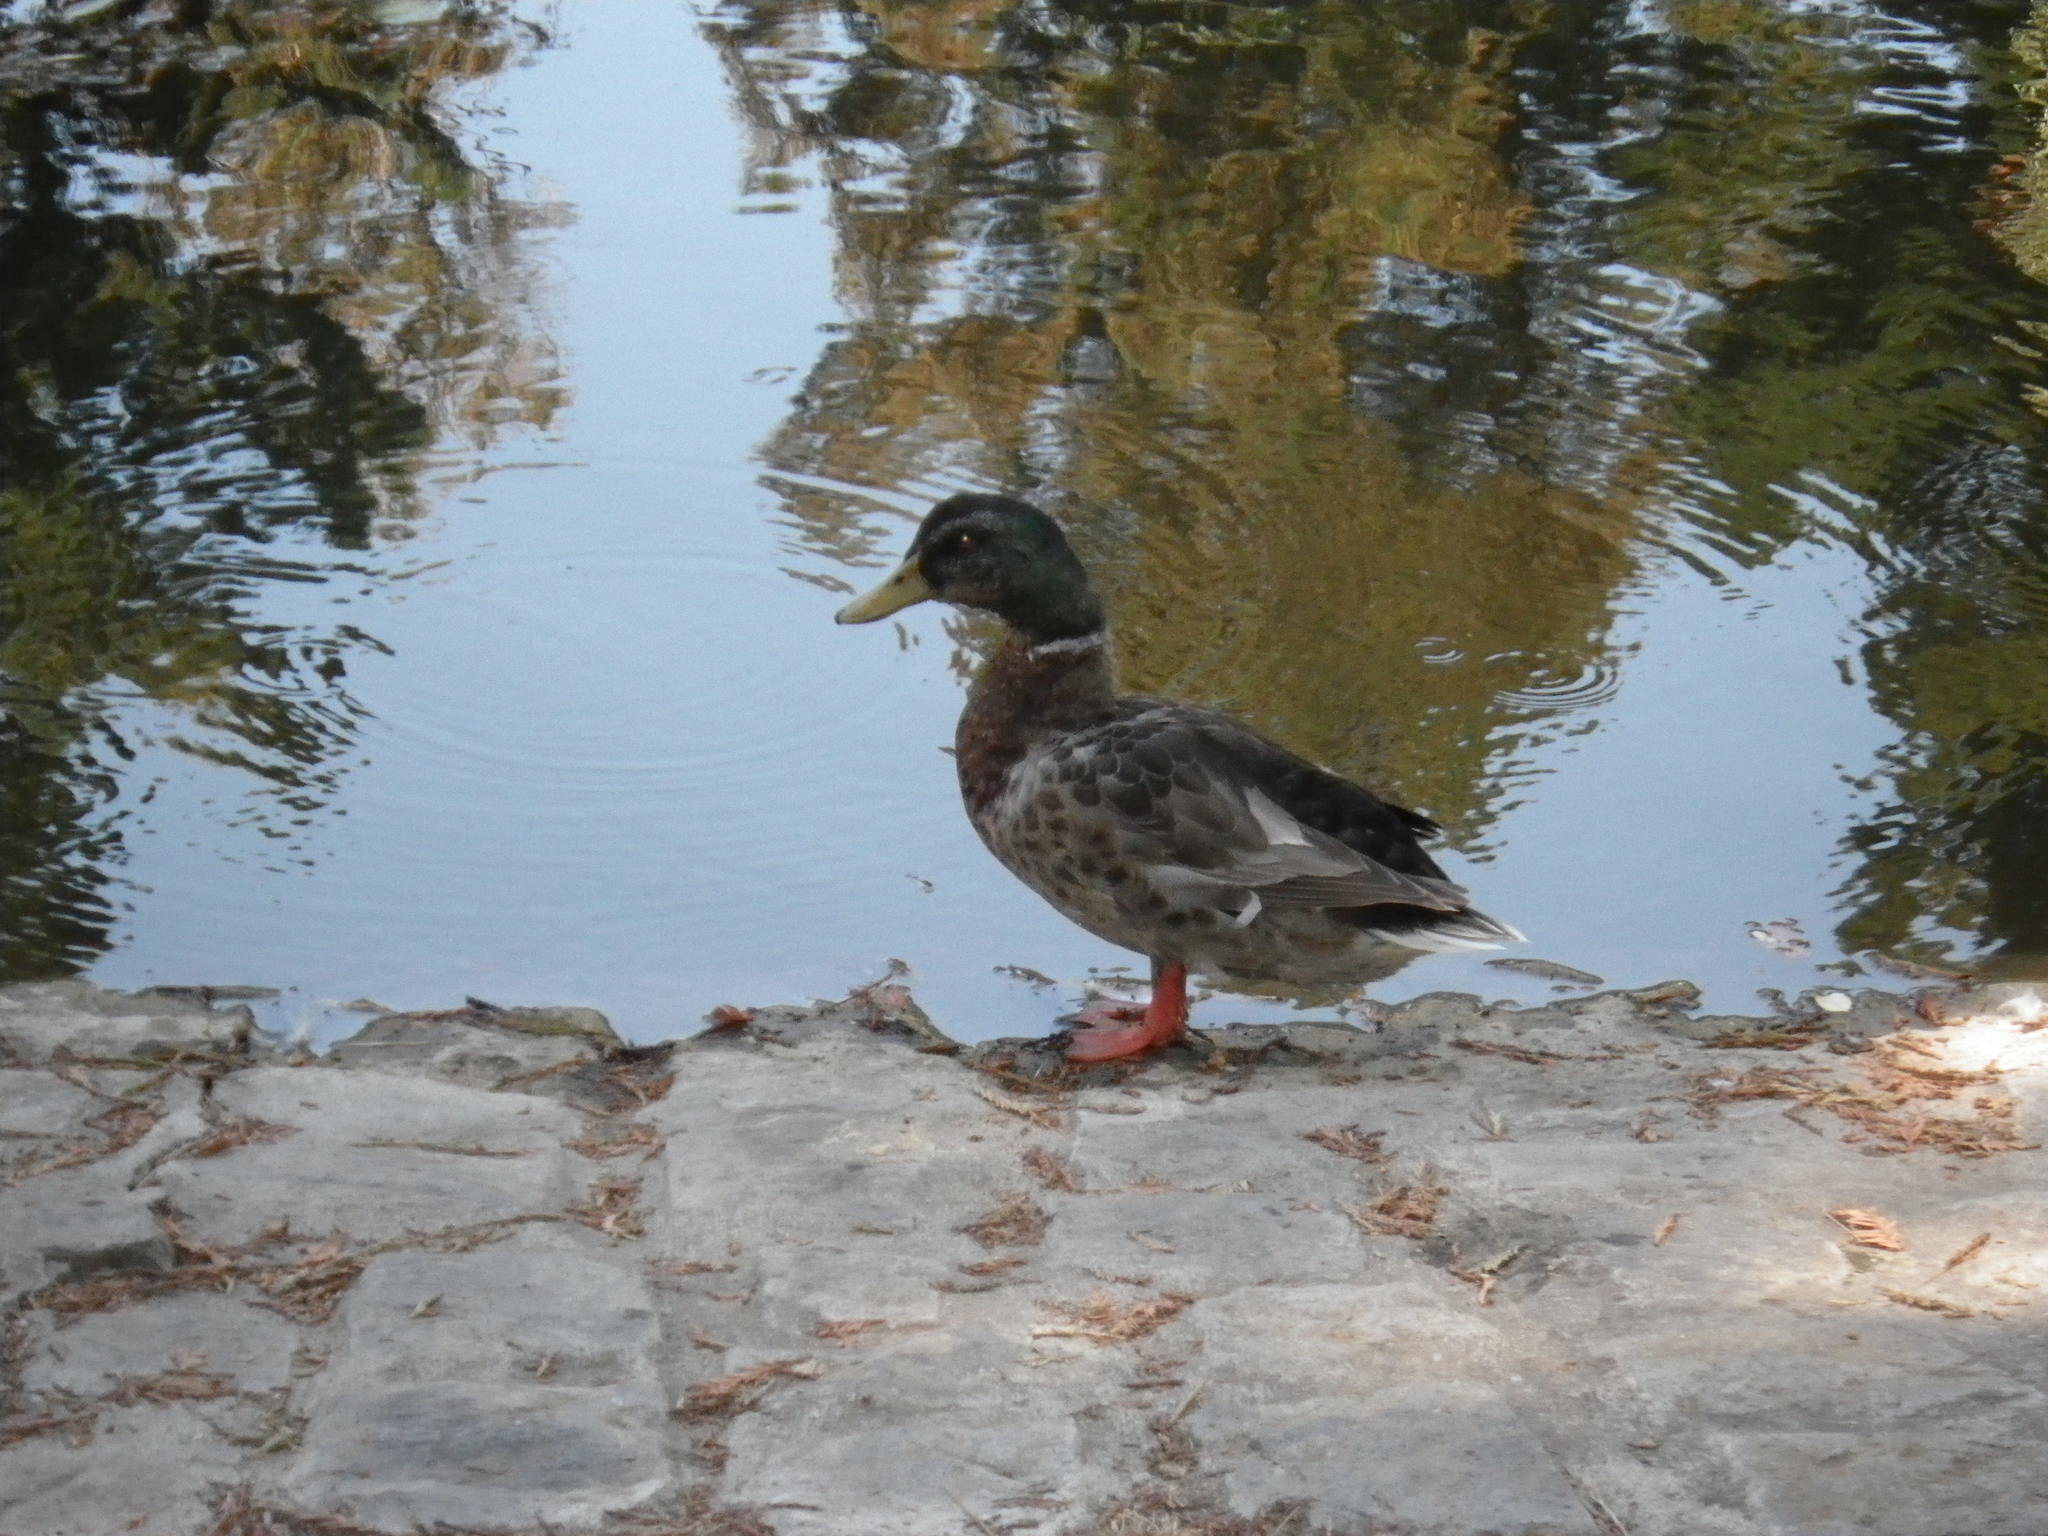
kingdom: Animalia
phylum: Chordata
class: Aves
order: Anseriformes
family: Anatidae
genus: Anas
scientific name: Anas platyrhynchos
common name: Mallard
